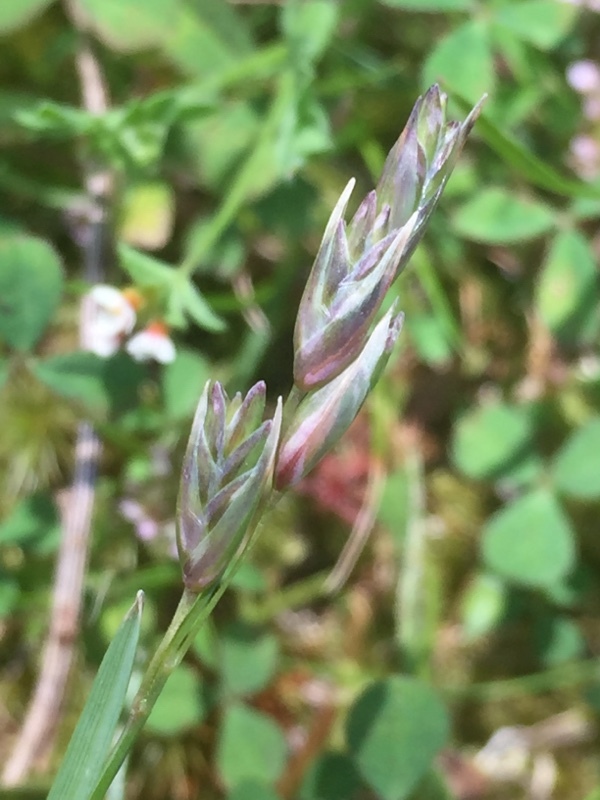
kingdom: Plantae
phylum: Tracheophyta
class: Liliopsida
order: Poales
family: Poaceae
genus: Danthonia
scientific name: Danthonia decumbens
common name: Common heathgrass
